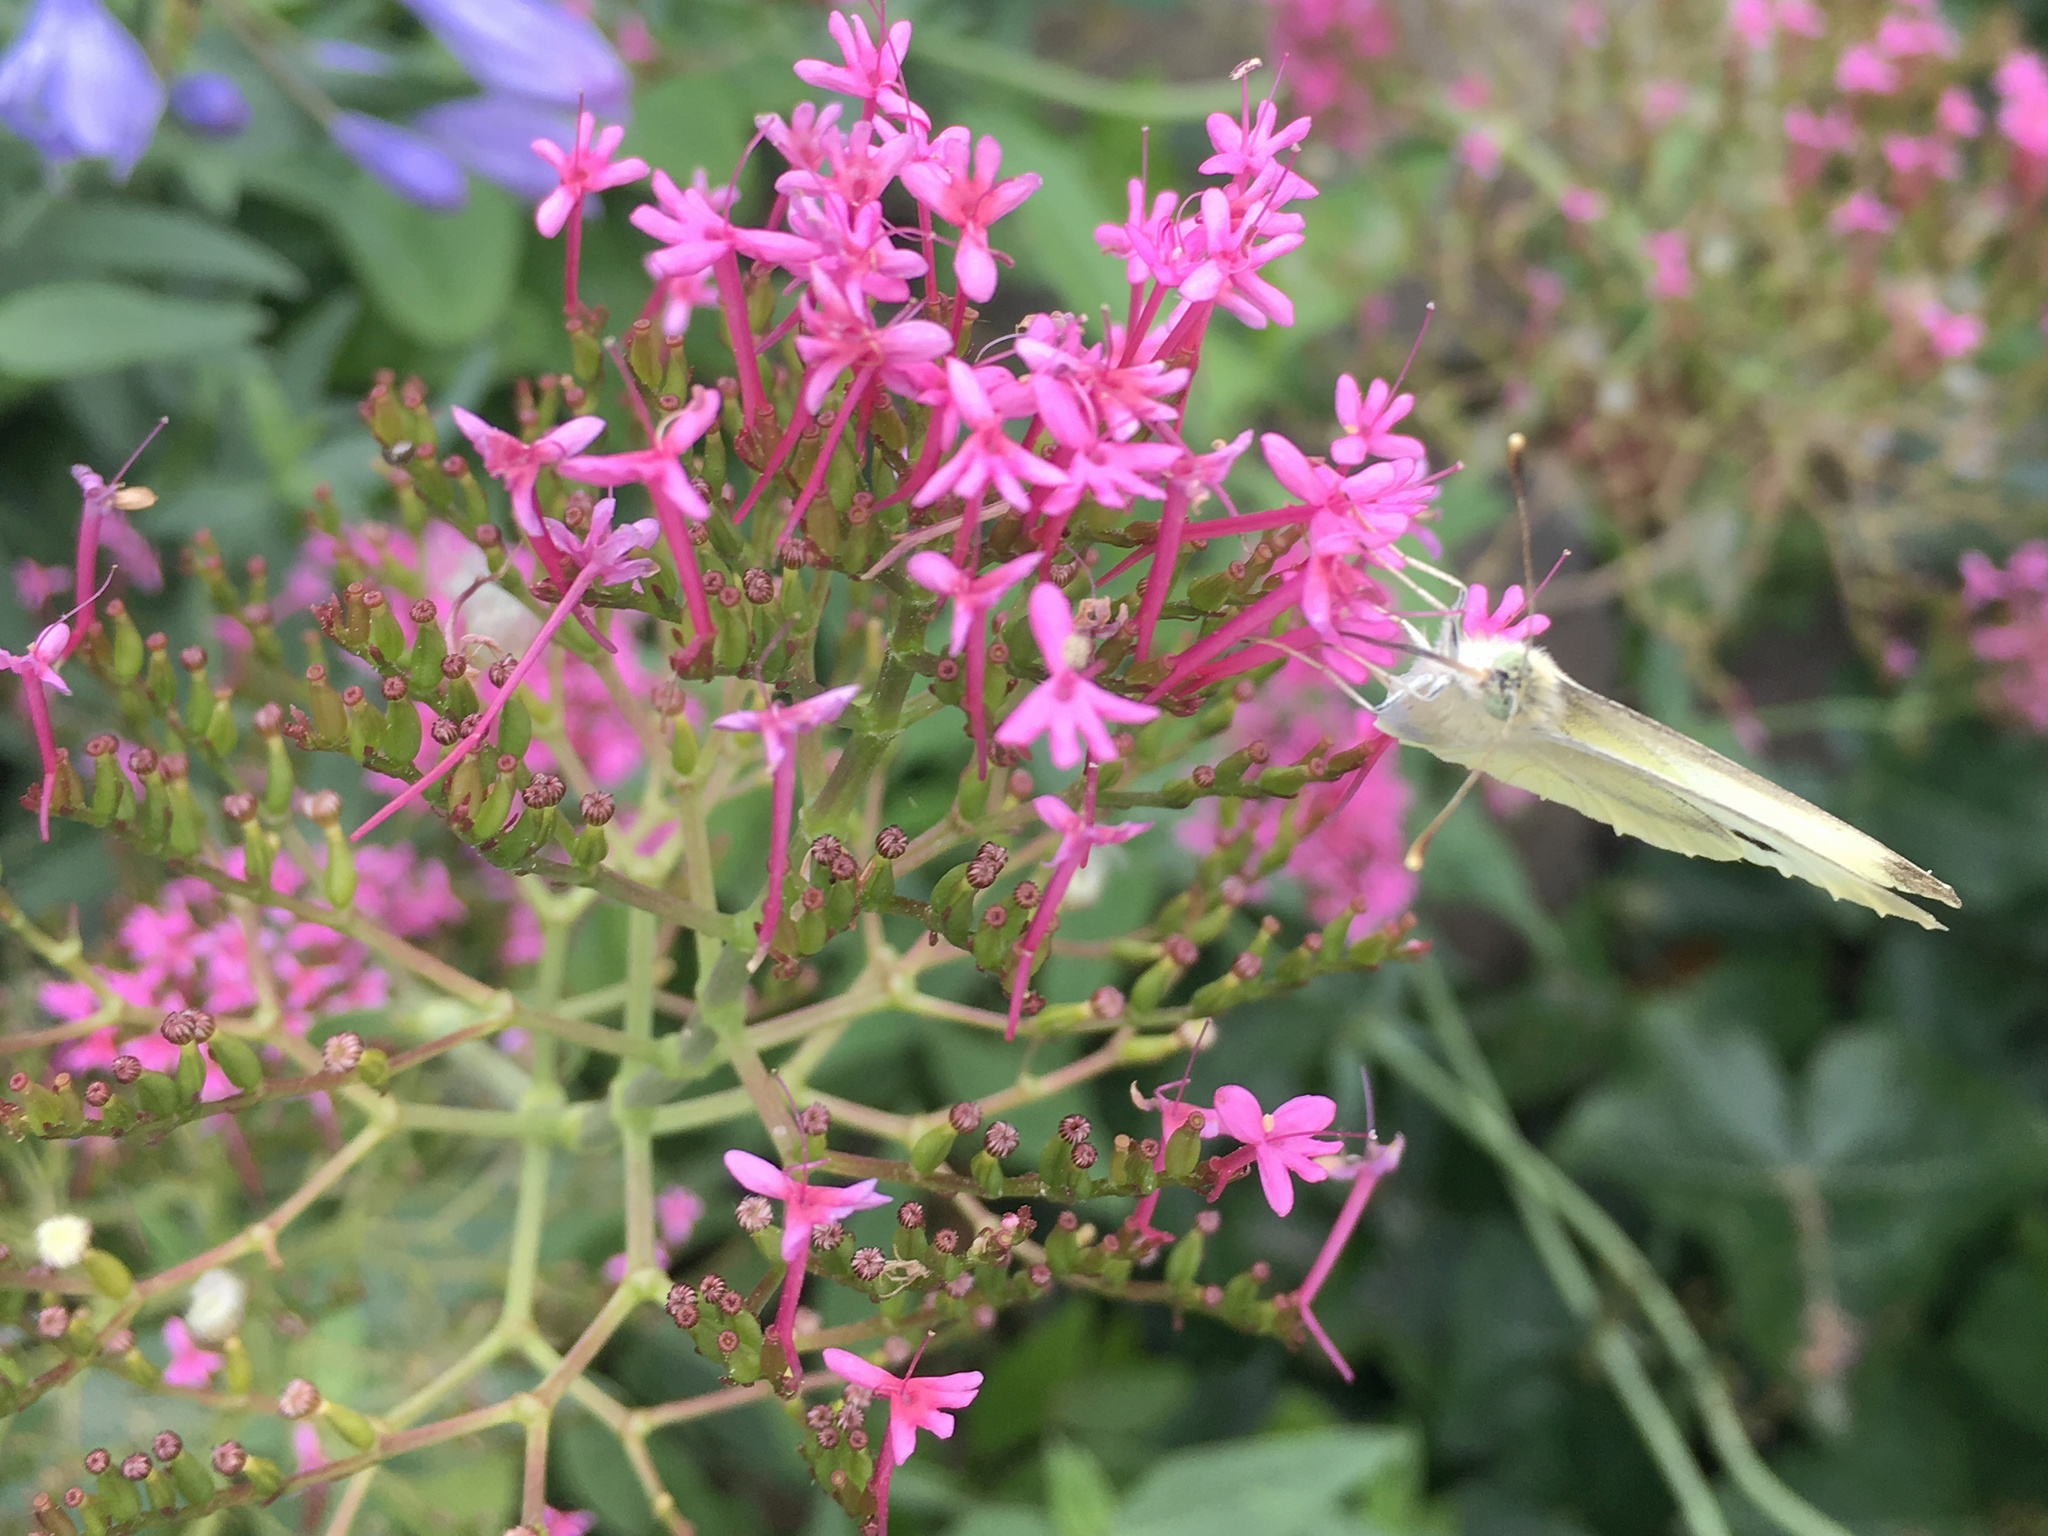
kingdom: Animalia
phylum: Arthropoda
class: Insecta
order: Lepidoptera
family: Pieridae
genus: Pieris
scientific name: Pieris rapae
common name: Small white
